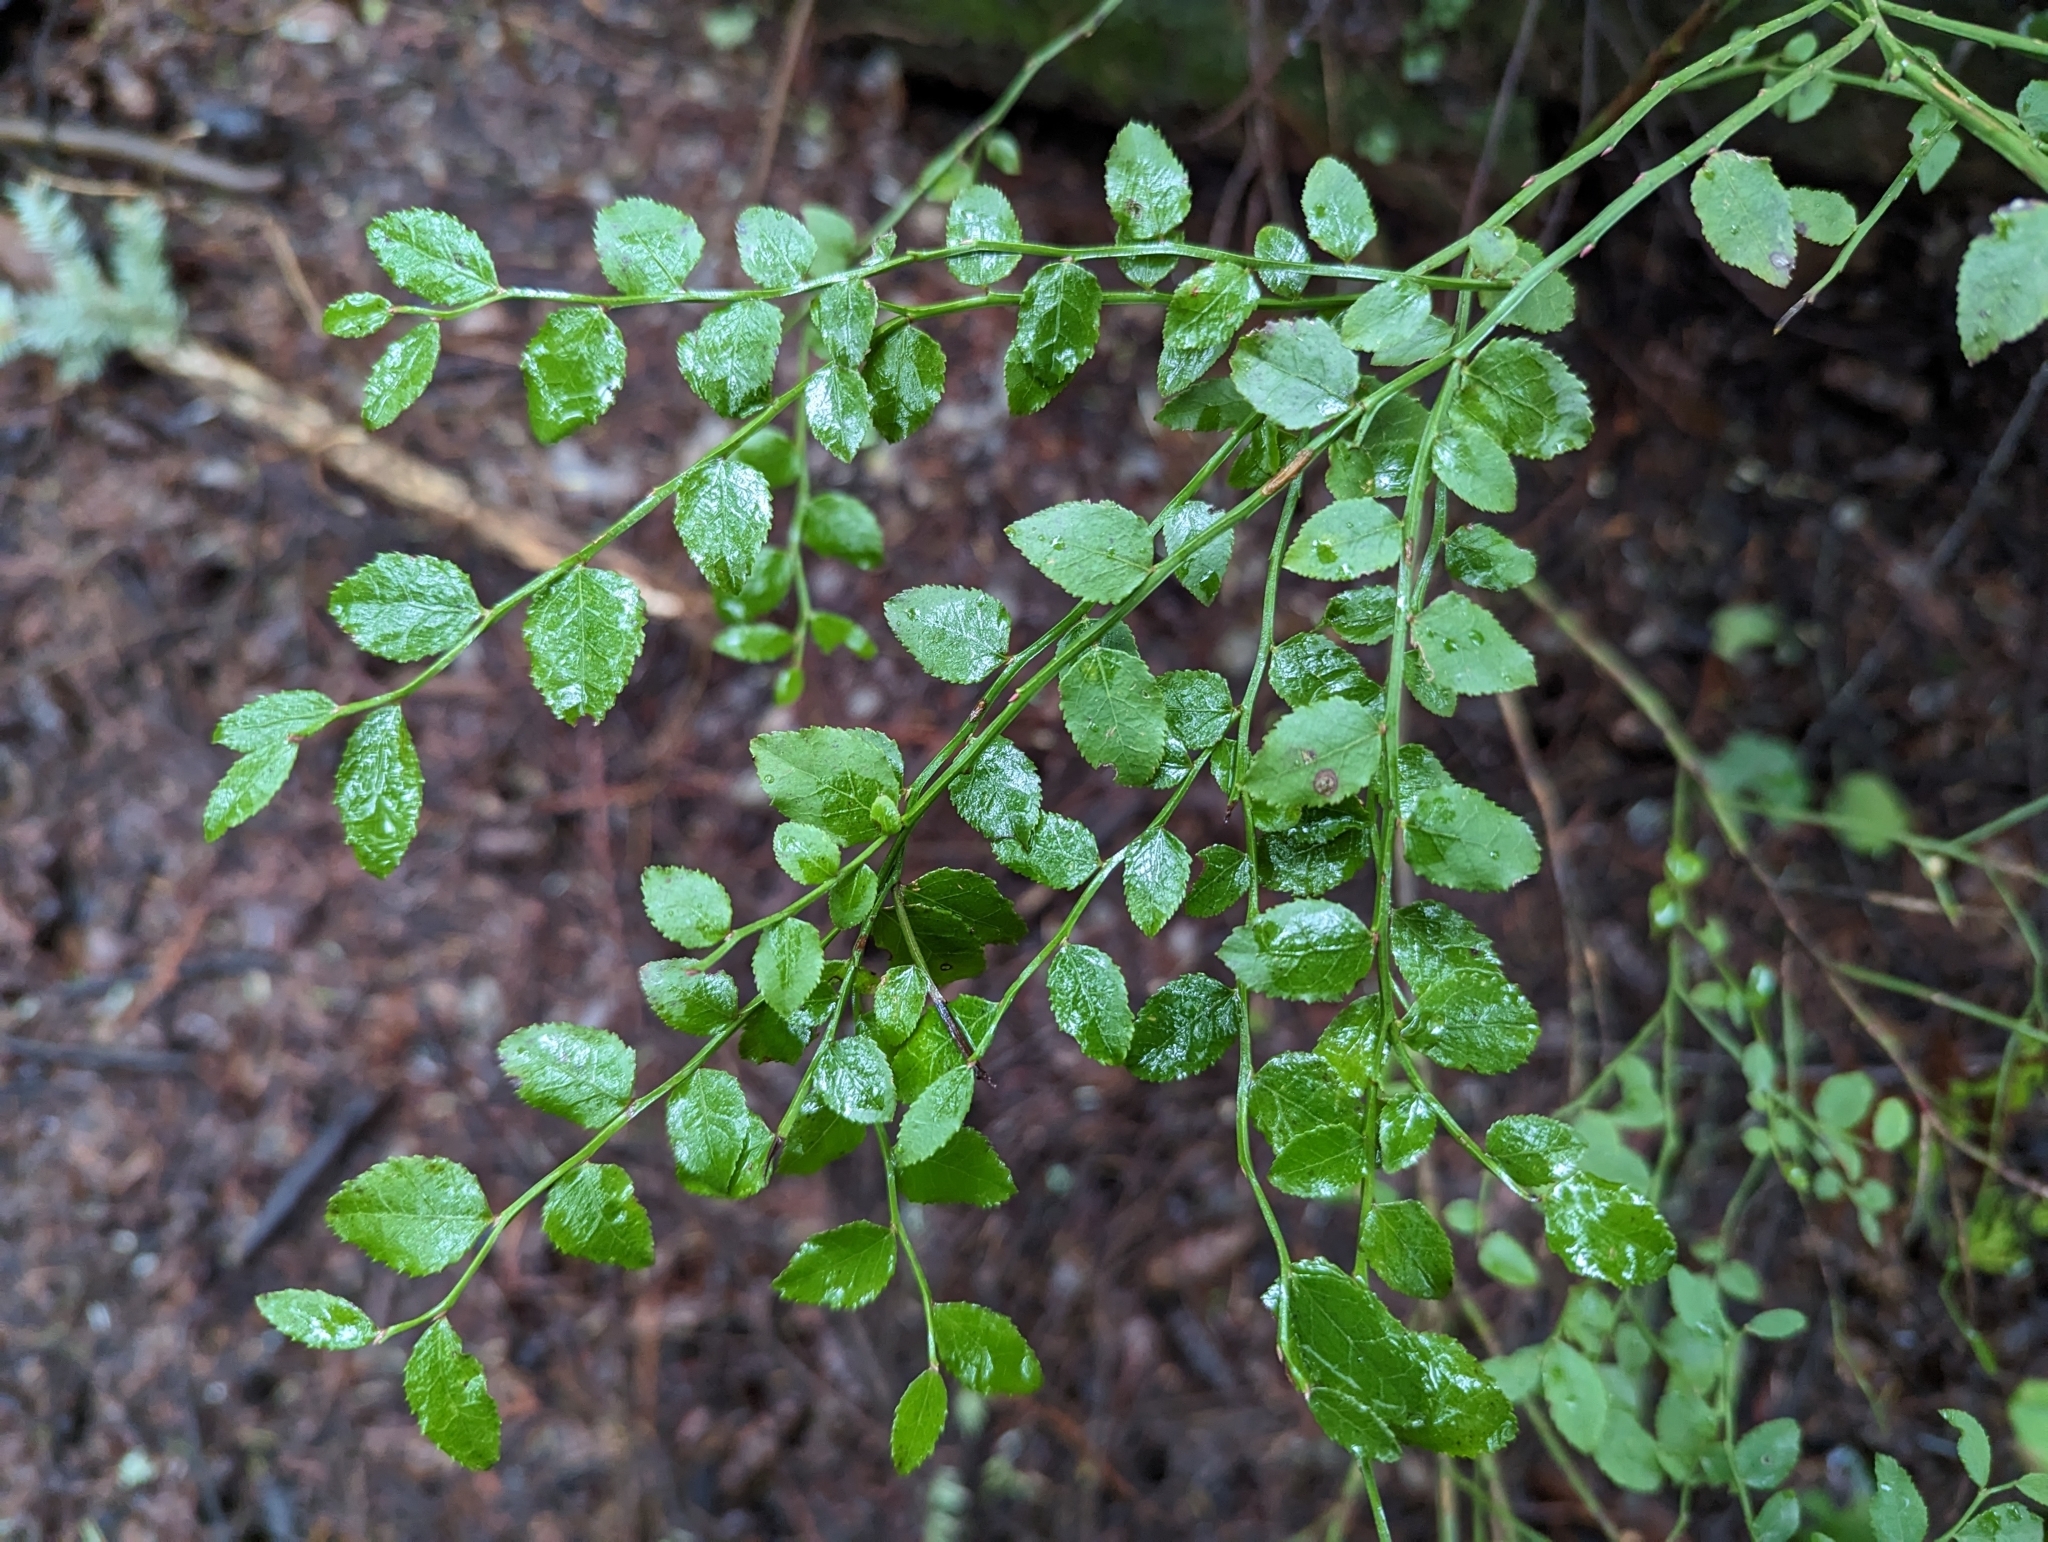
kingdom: Plantae
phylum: Tracheophyta
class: Magnoliopsida
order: Ericales
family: Ericaceae
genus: Vaccinium
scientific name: Vaccinium parvifolium
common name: Red-huckleberry
